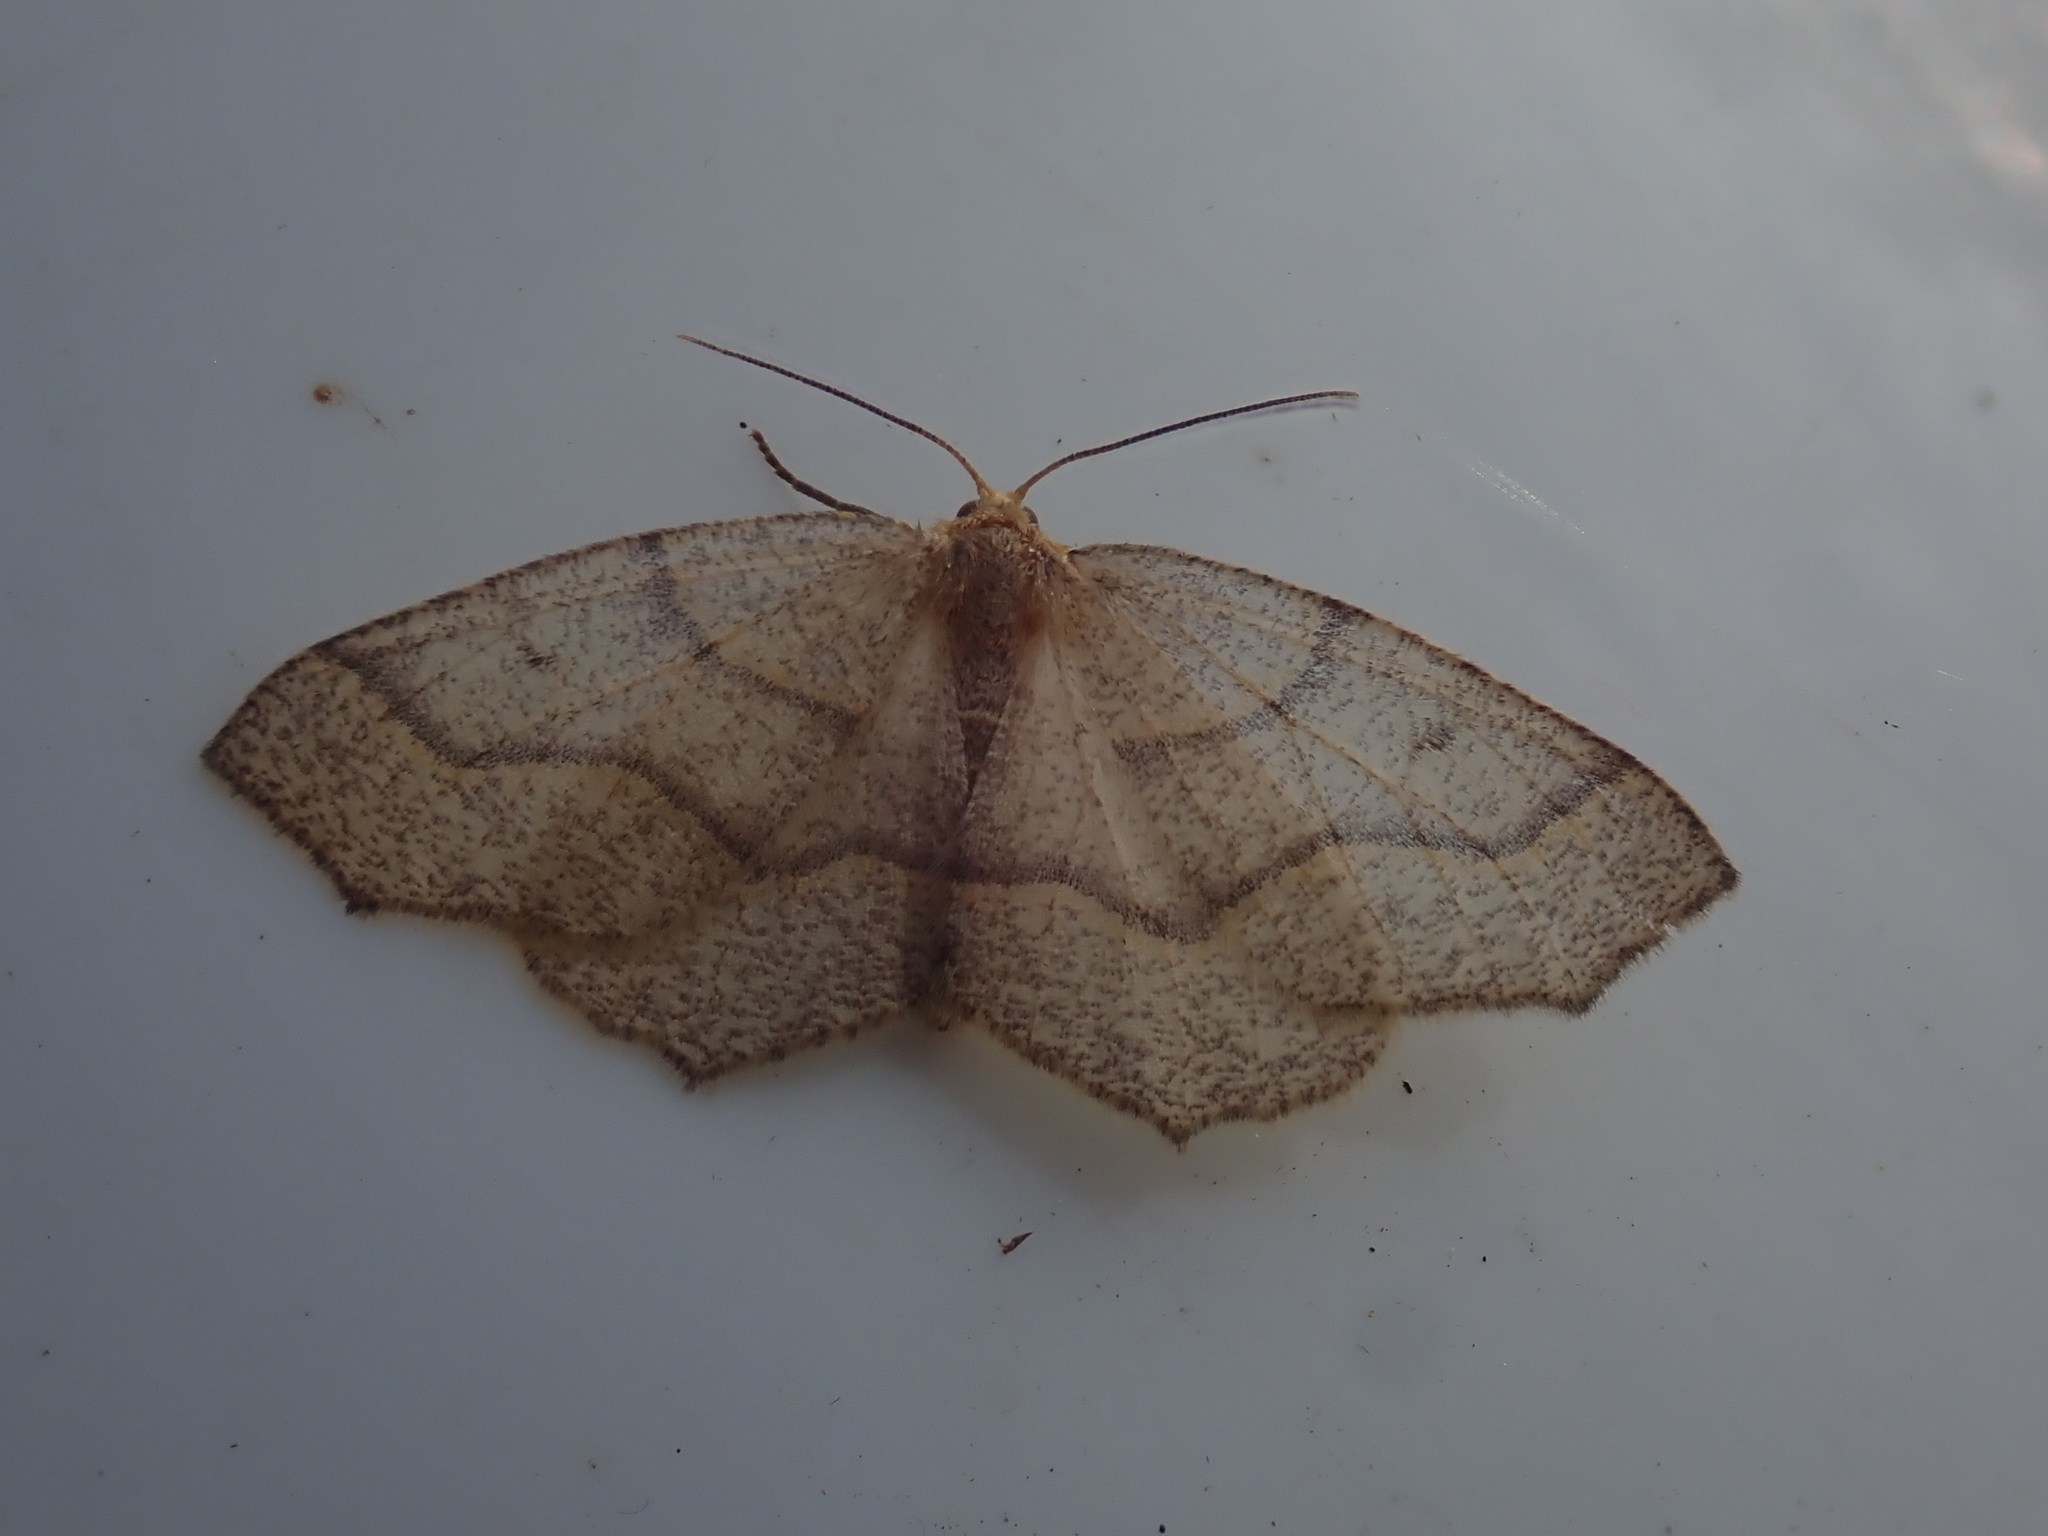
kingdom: Animalia
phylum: Arthropoda
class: Insecta
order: Lepidoptera
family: Geometridae
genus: Lambdina
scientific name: Lambdina fiscellaria
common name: Hemlock looper
